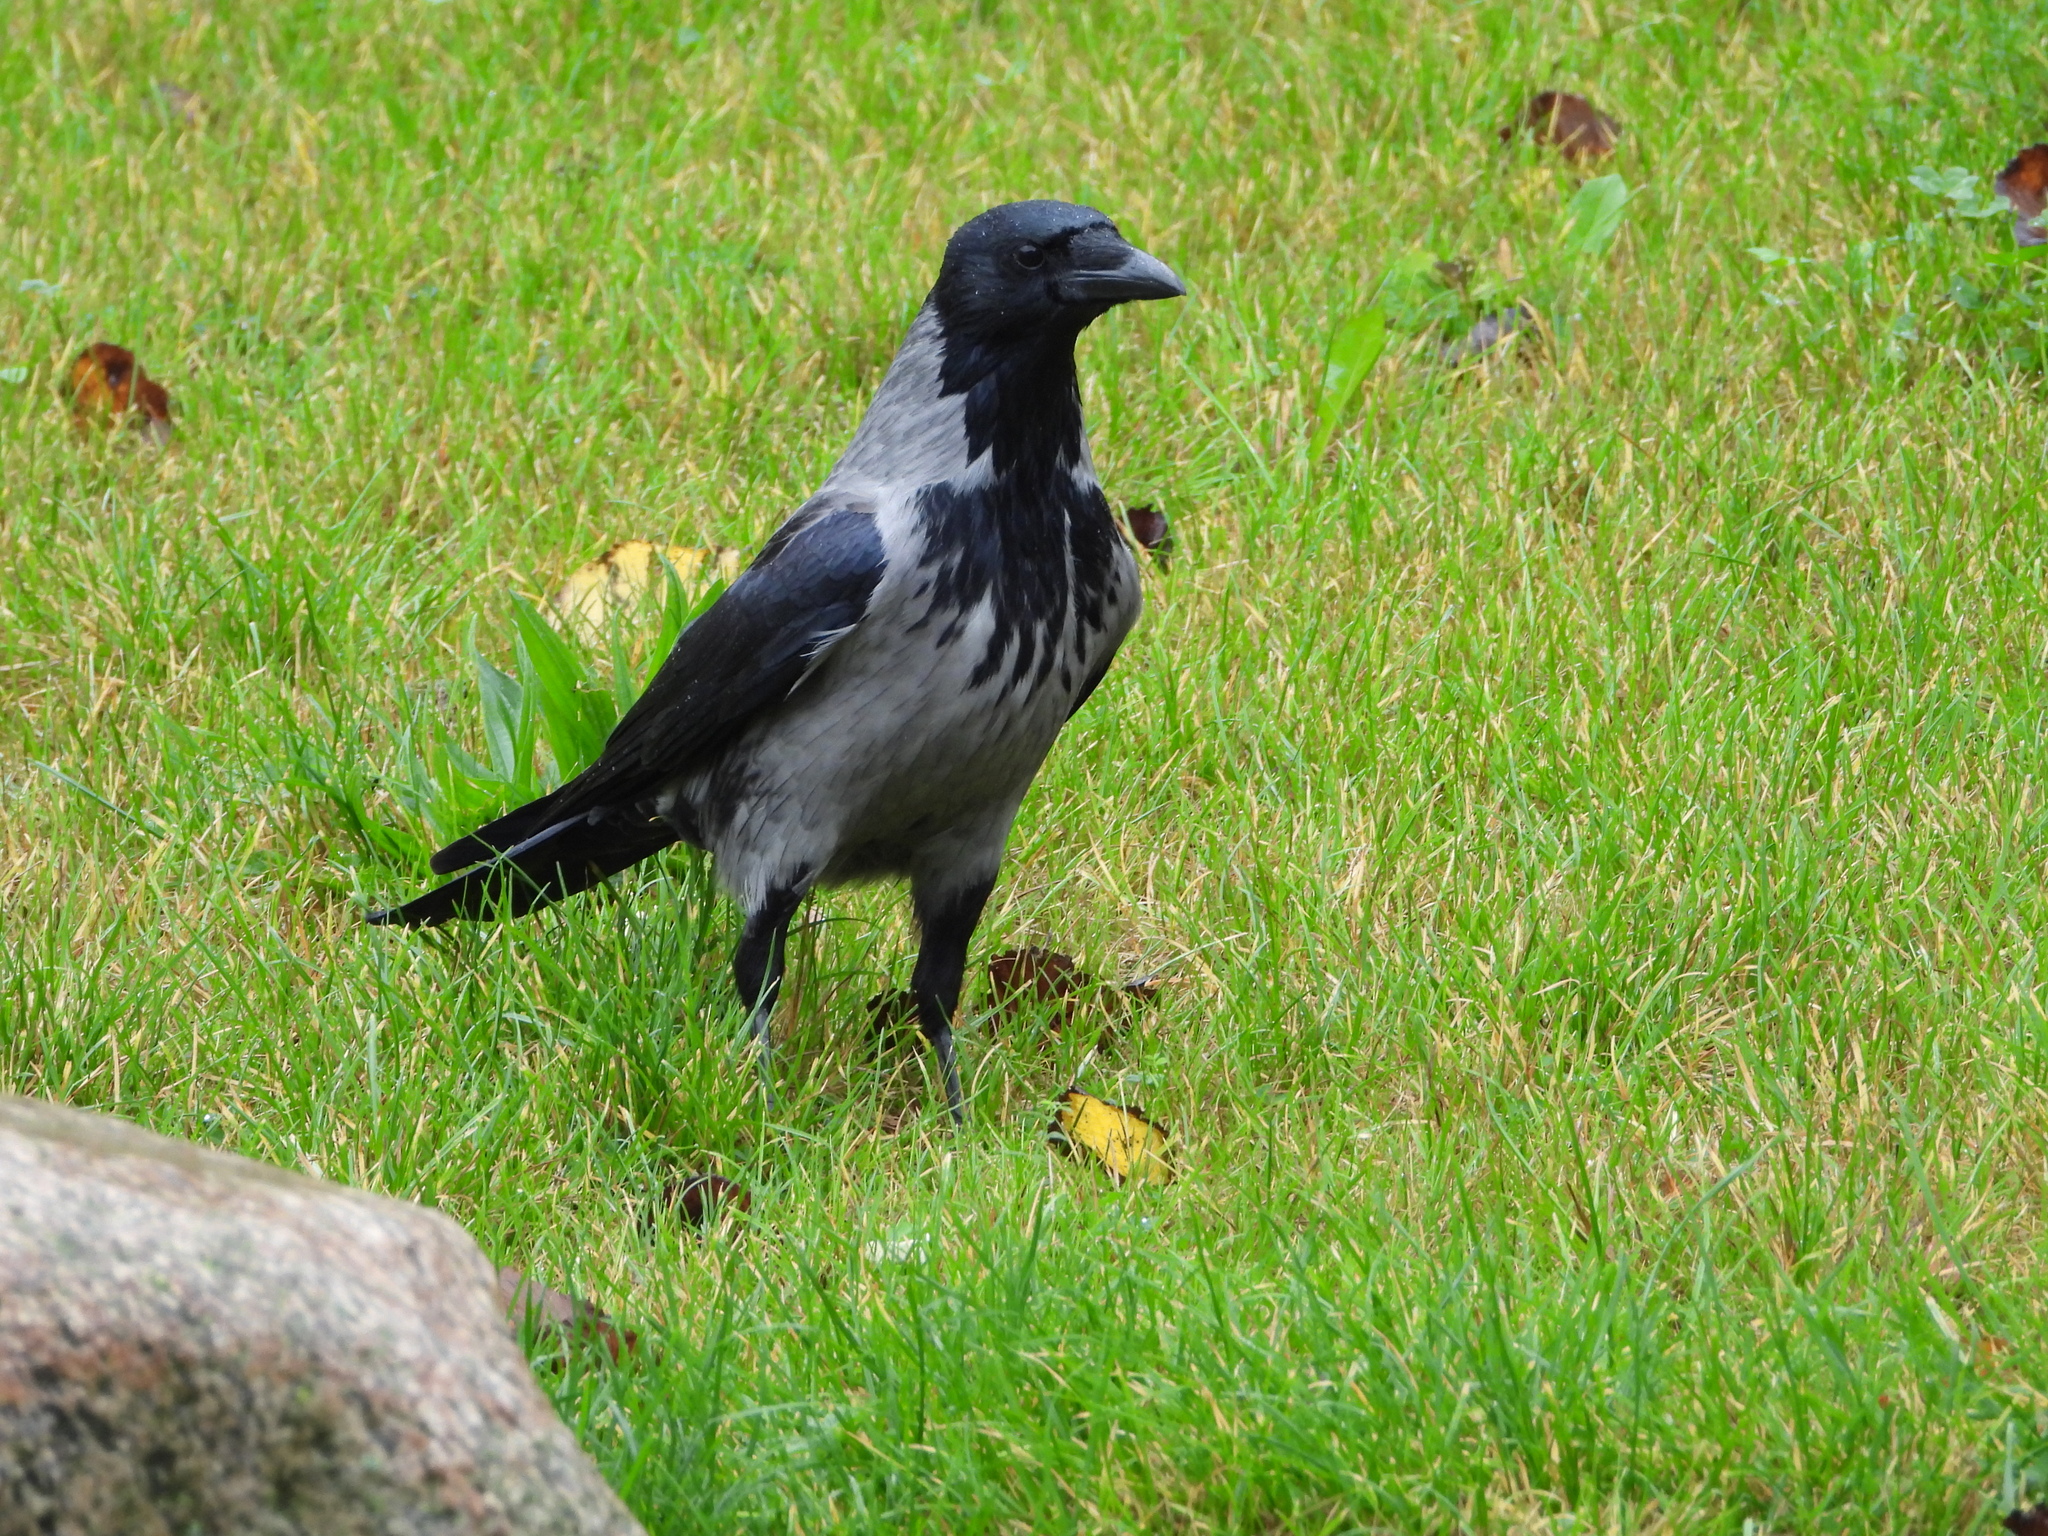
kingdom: Animalia
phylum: Chordata
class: Aves
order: Passeriformes
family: Corvidae
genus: Corvus
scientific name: Corvus
